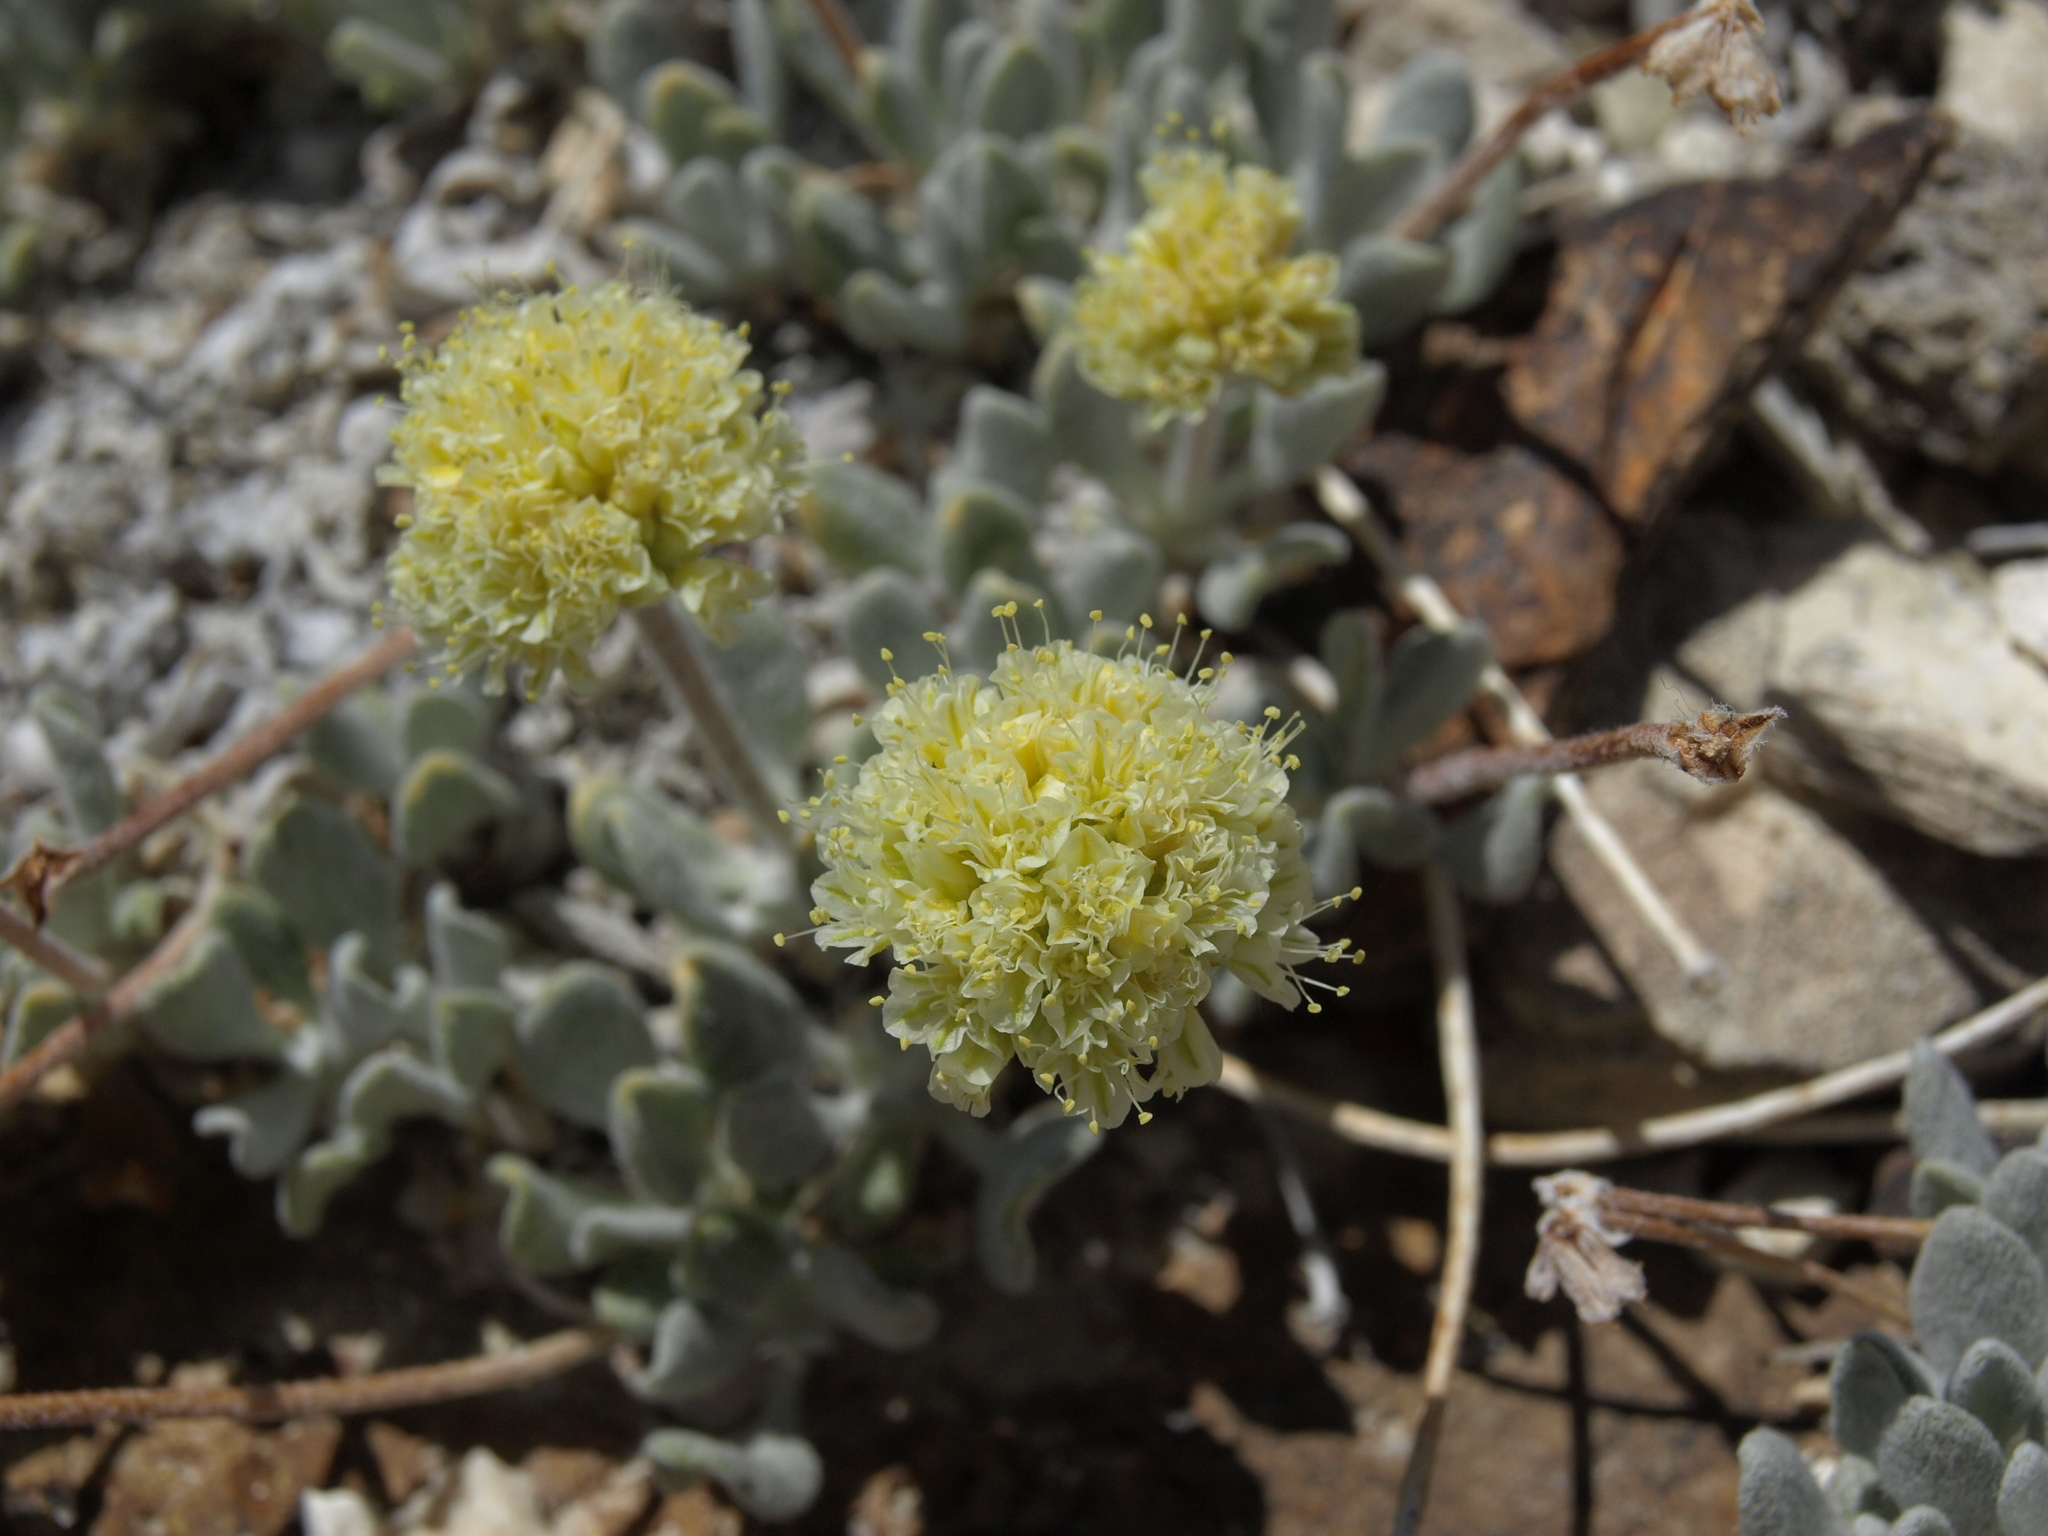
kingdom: Plantae
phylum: Tracheophyta
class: Magnoliopsida
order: Caryophyllales
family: Polygonaceae
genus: Eriogonum
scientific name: Eriogonum tiehmii
